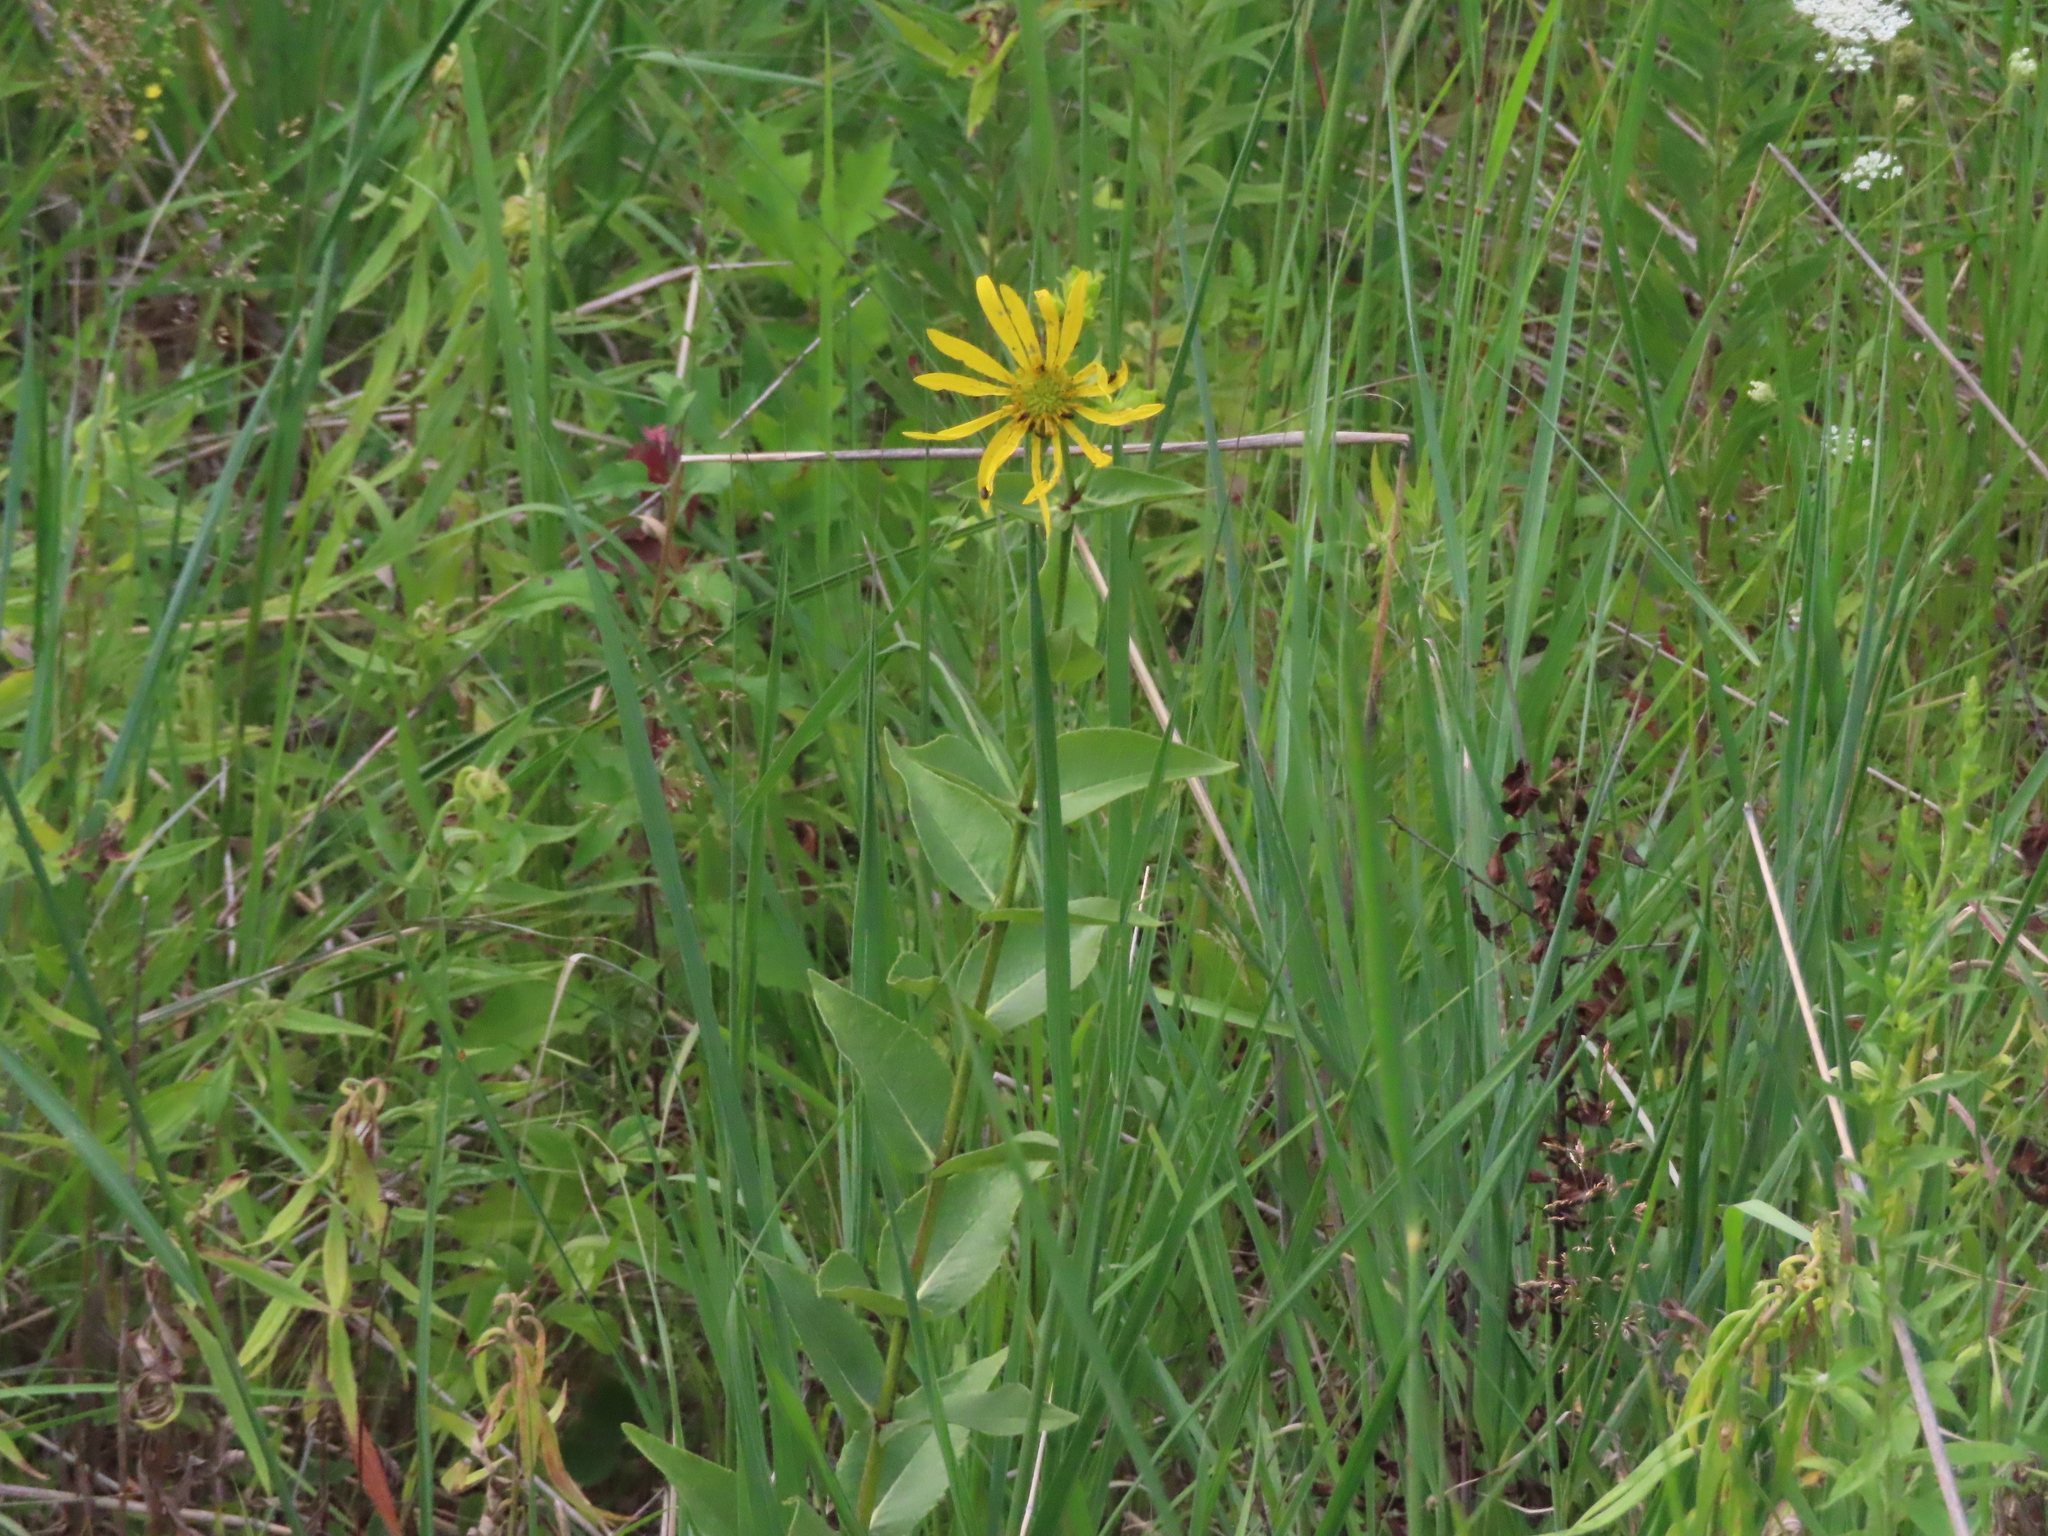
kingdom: Plantae
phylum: Tracheophyta
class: Magnoliopsida
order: Asterales
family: Asteraceae
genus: Silphium
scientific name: Silphium integrifolium
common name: Whole-leaf rosinweed
